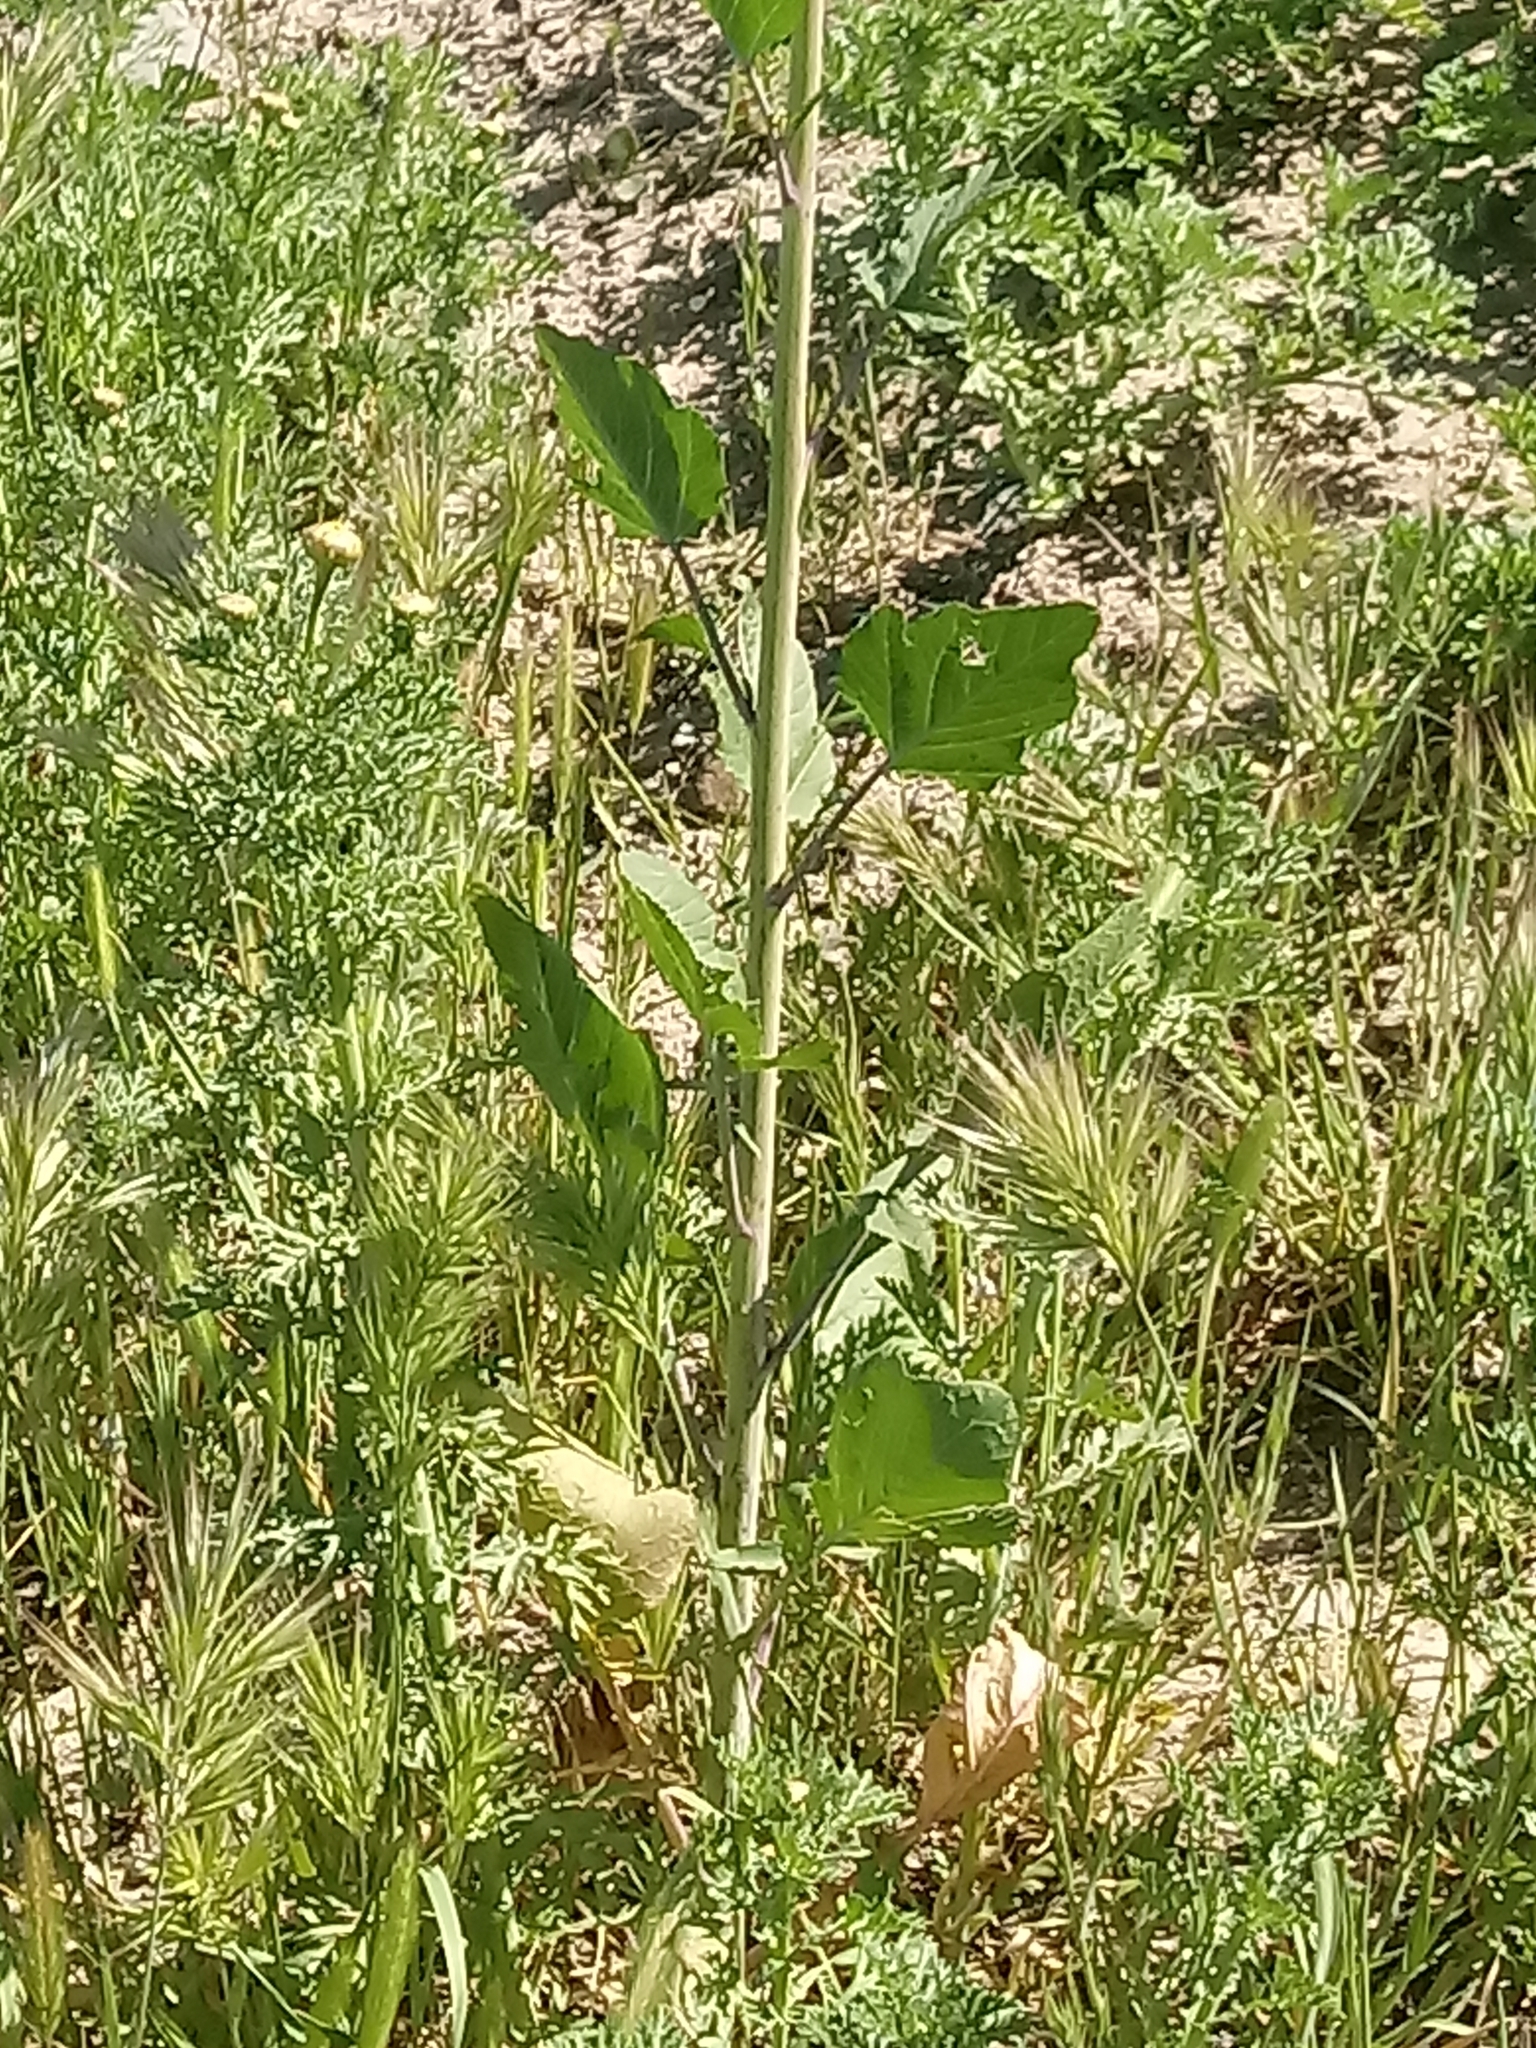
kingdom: Plantae
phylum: Tracheophyta
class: Magnoliopsida
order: Brassicales
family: Brassicaceae
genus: Brassica
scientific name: Brassica nigra
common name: Black mustard
